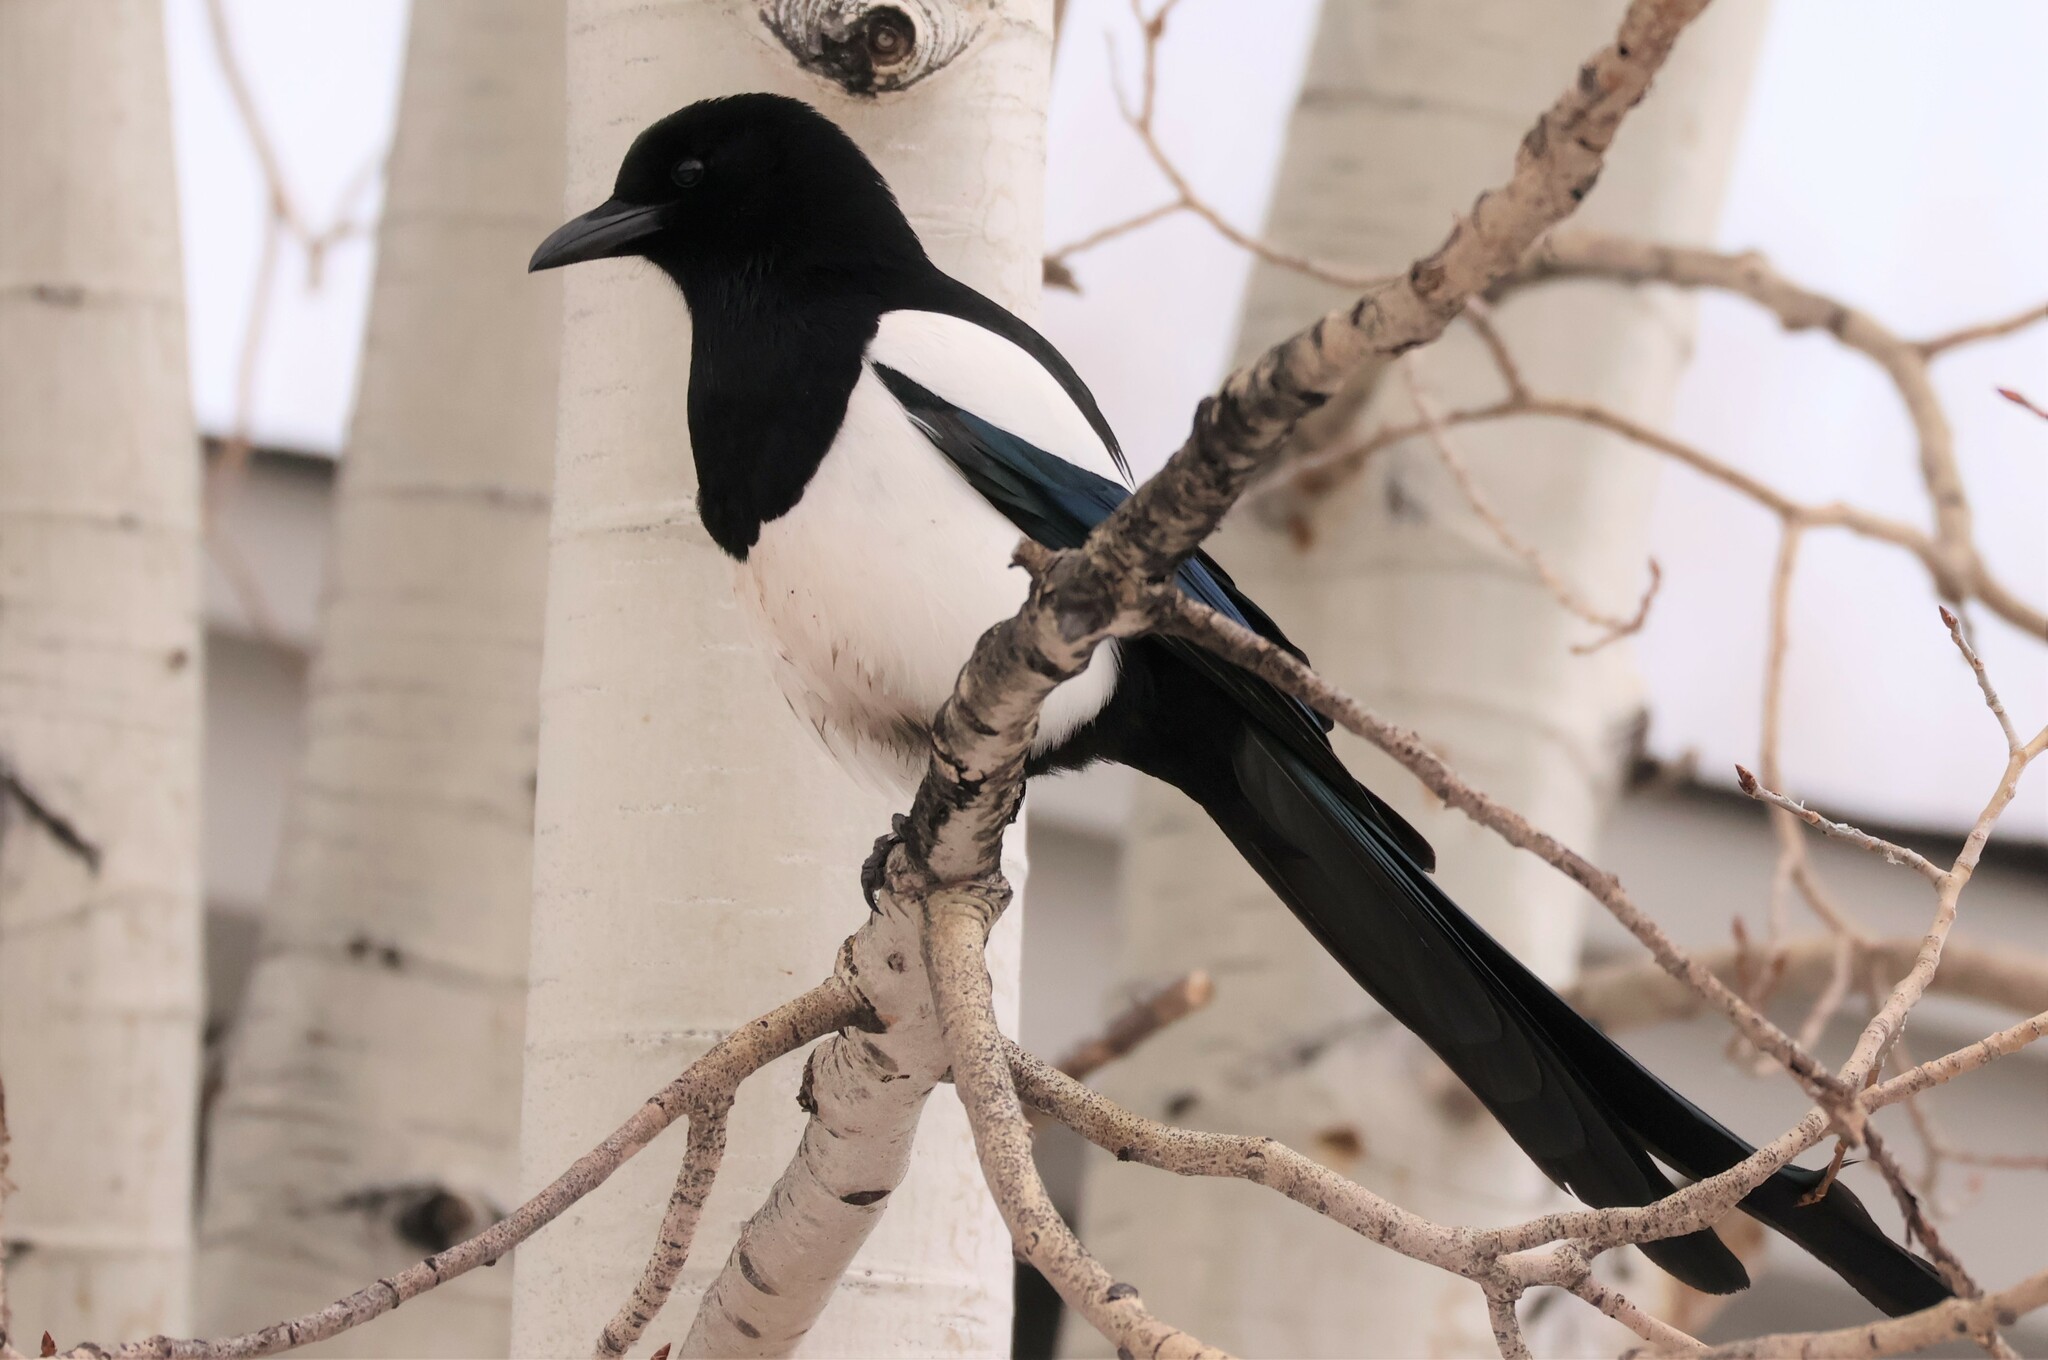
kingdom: Animalia
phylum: Chordata
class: Aves
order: Passeriformes
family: Corvidae
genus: Pica
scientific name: Pica hudsonia
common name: Black-billed magpie
